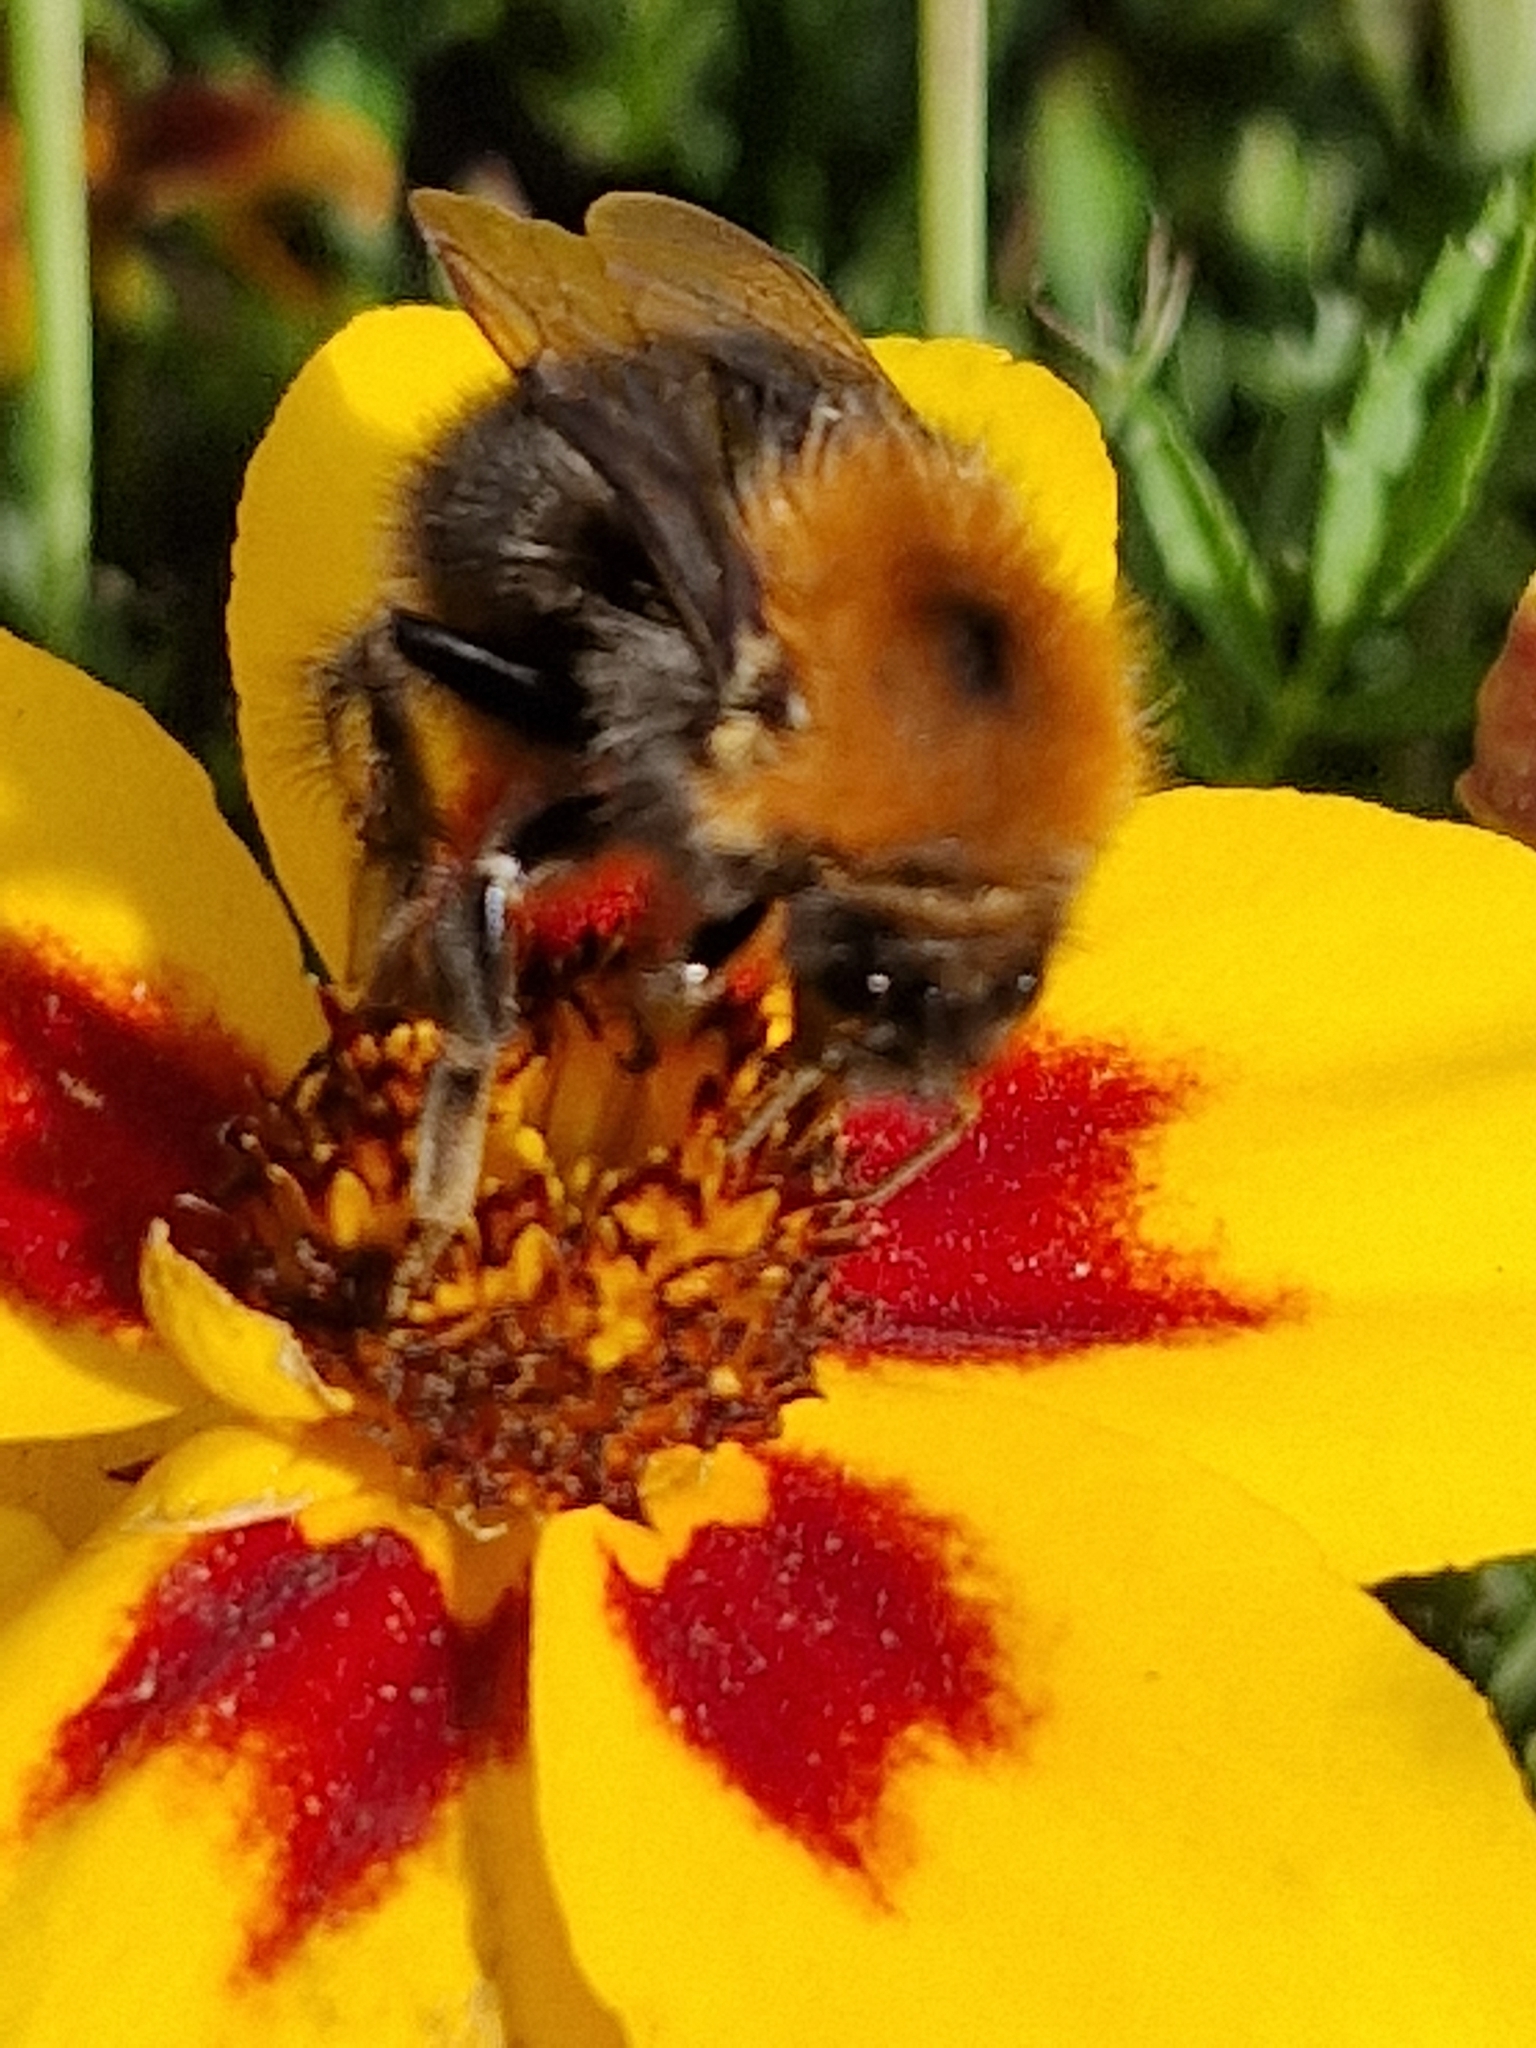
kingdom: Animalia
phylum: Arthropoda
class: Insecta
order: Hymenoptera
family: Apidae
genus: Bombus
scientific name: Bombus hypnorum
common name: New garden bumblebee
